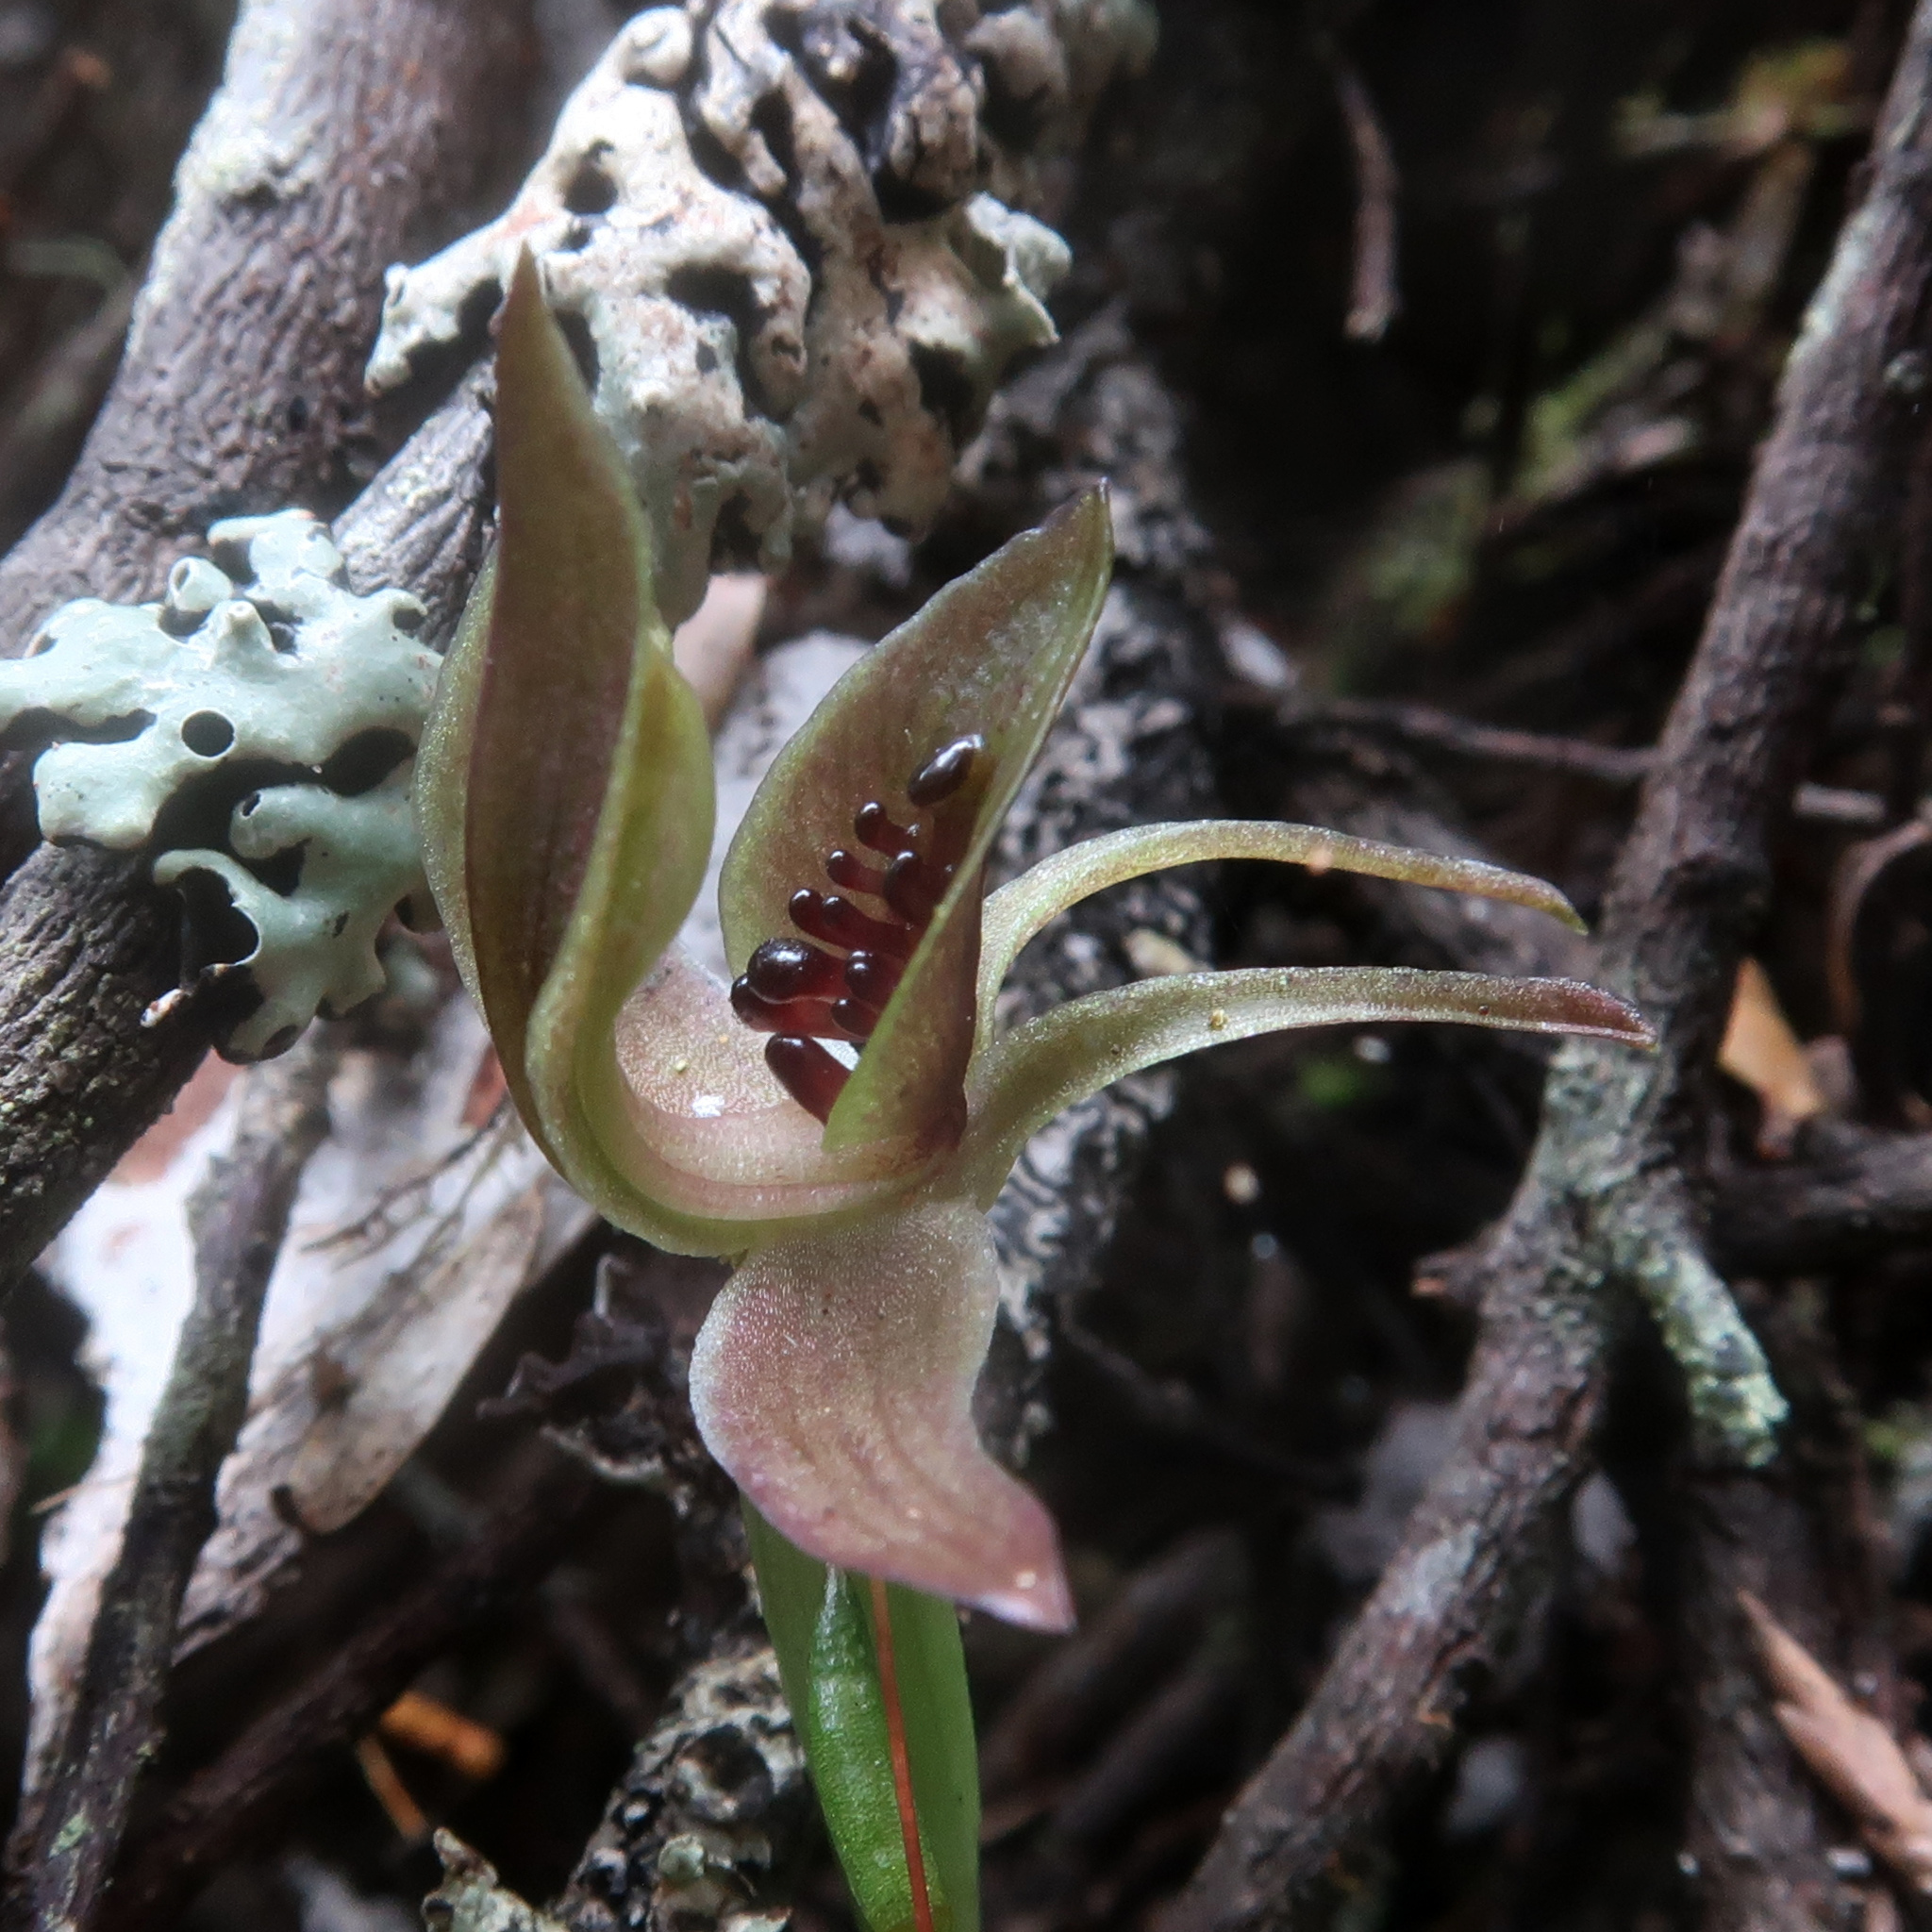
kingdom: Plantae
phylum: Tracheophyta
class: Liliopsida
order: Asparagales
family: Orchidaceae
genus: Chiloglottis
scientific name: Chiloglottis grammata
